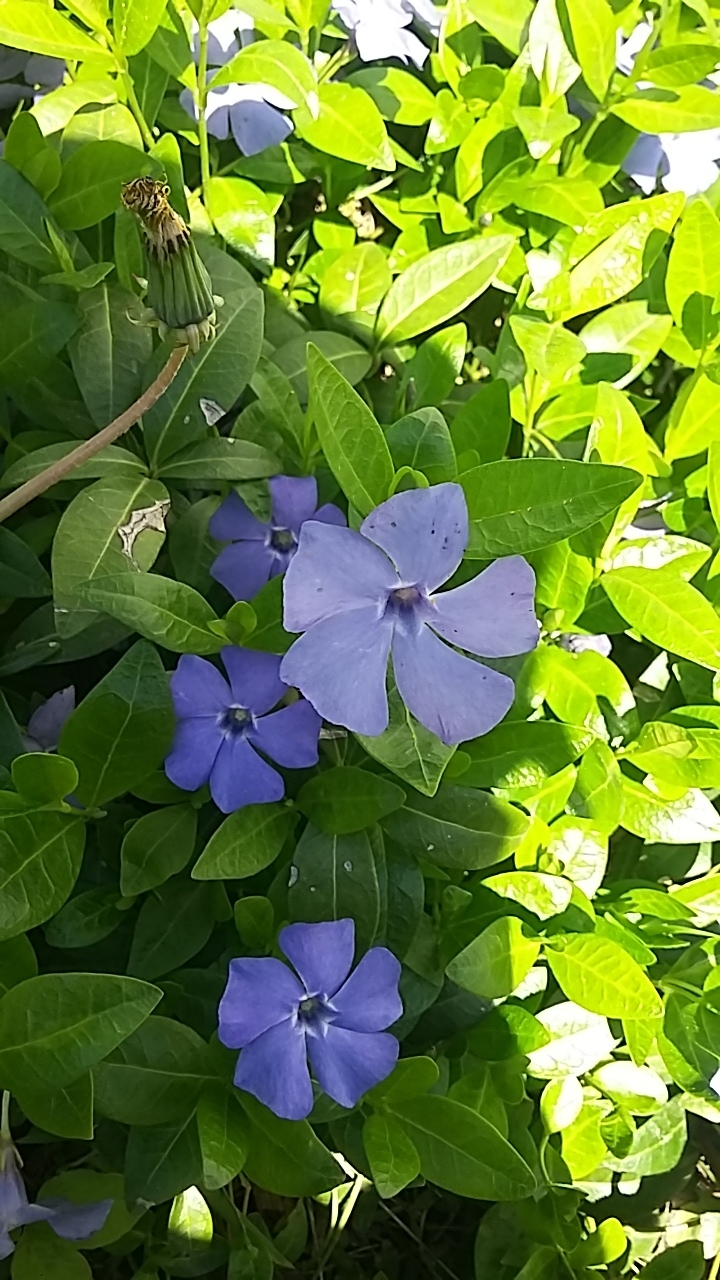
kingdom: Plantae
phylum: Tracheophyta
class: Magnoliopsida
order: Gentianales
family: Apocynaceae
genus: Vinca
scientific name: Vinca minor
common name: Lesser periwinkle
